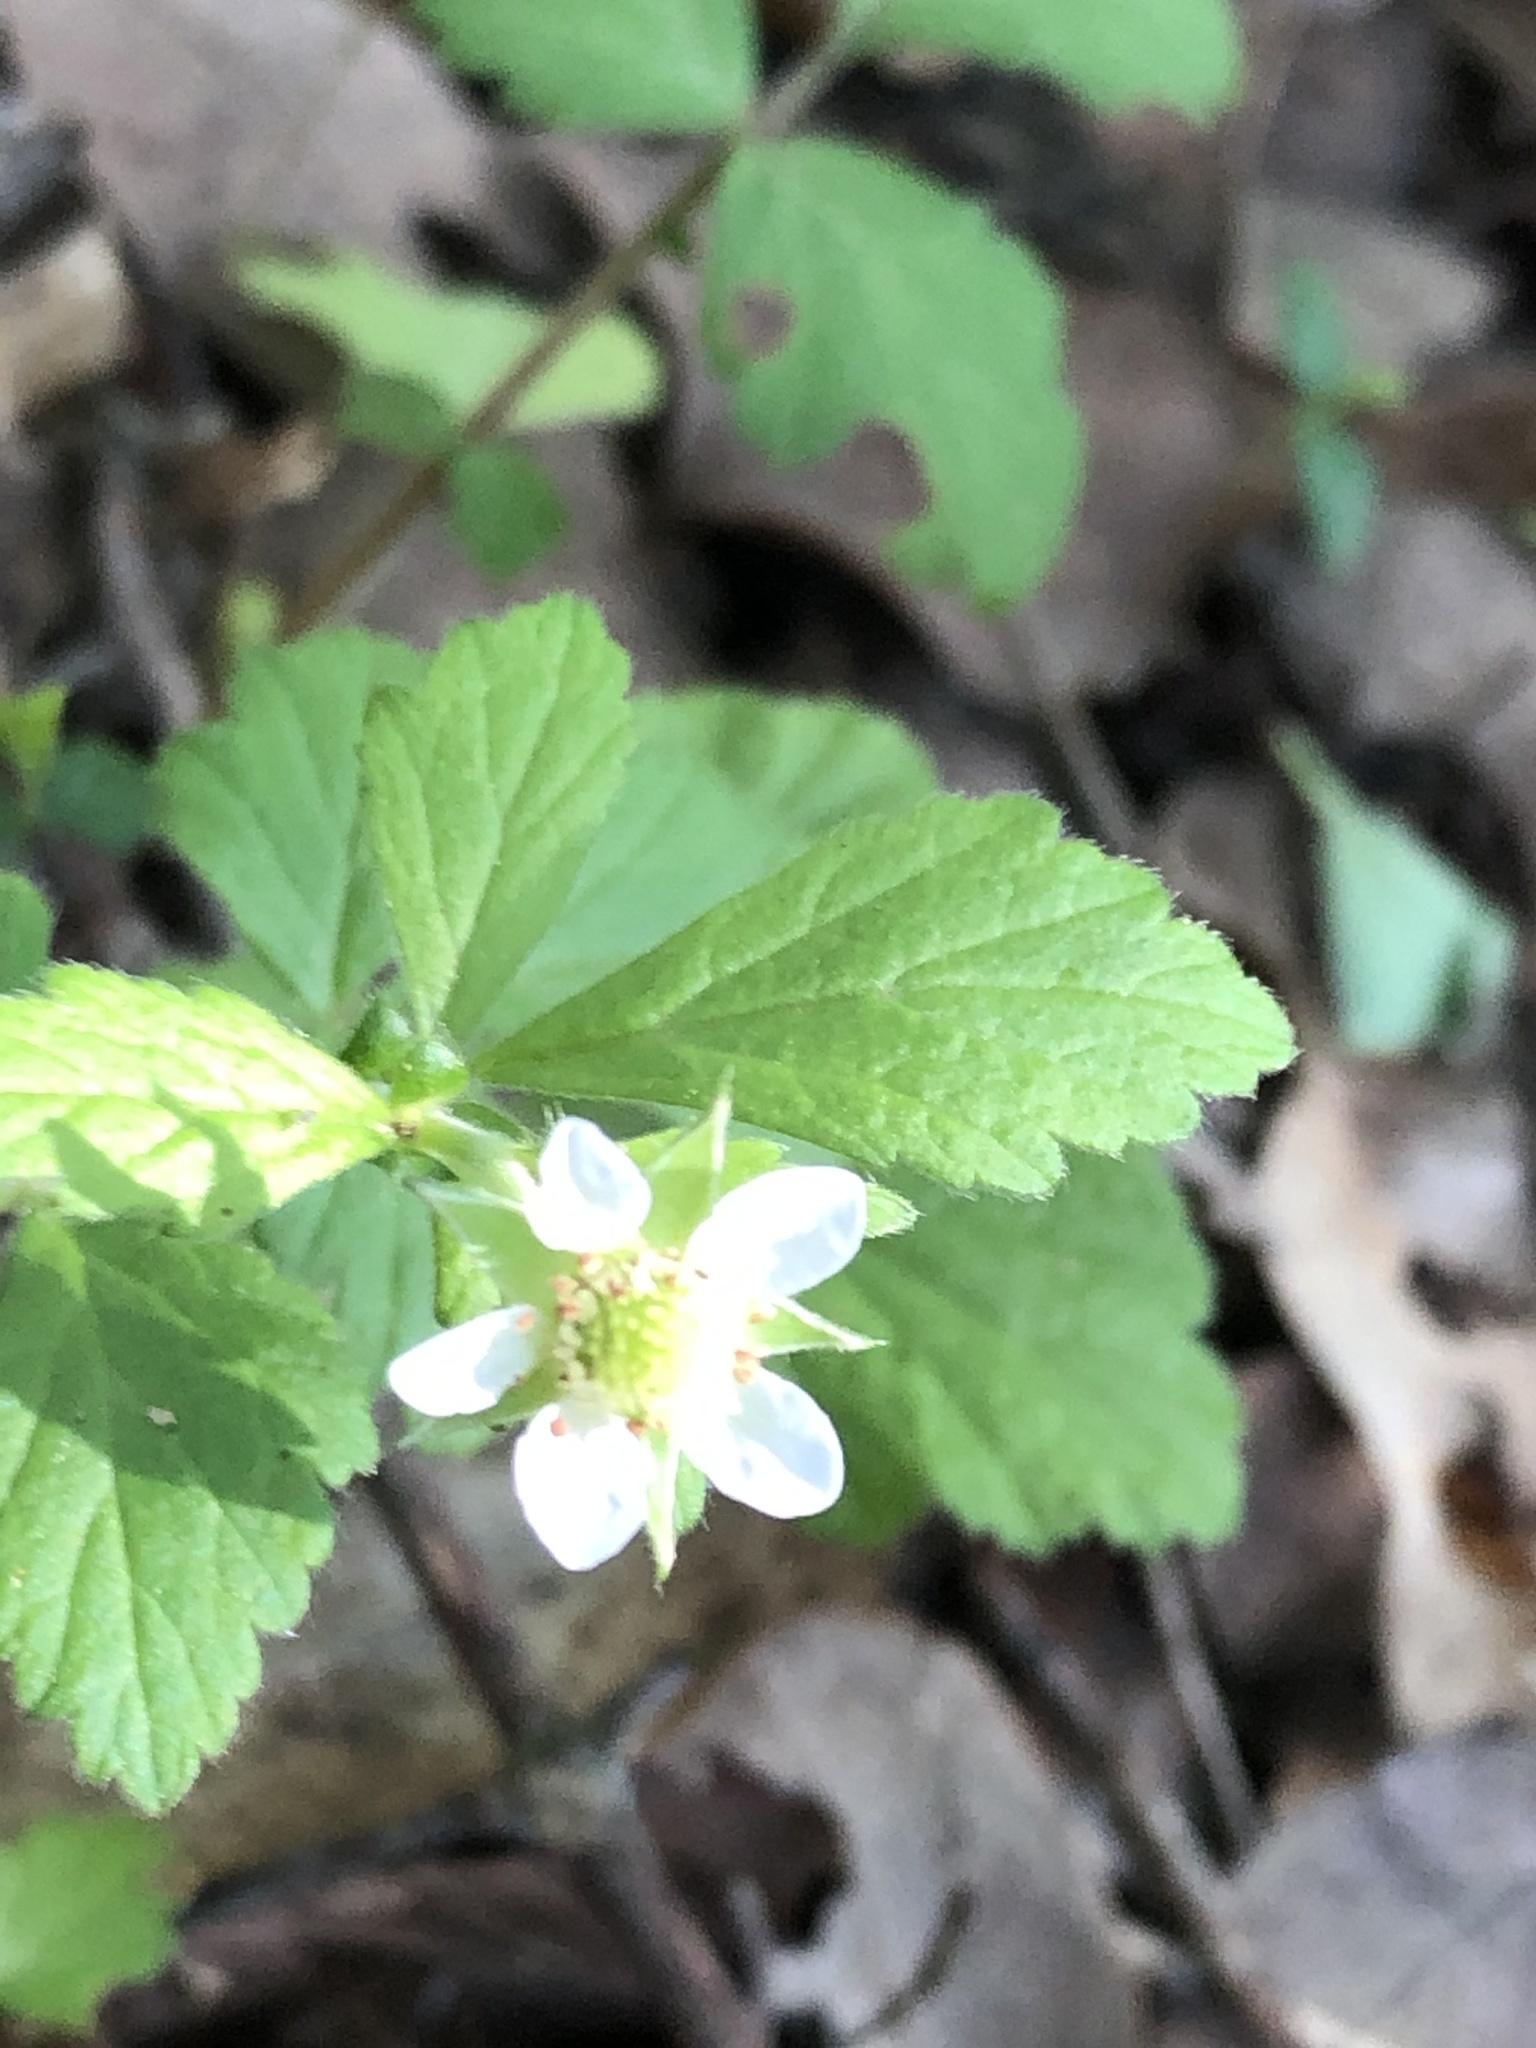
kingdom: Plantae
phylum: Tracheophyta
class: Magnoliopsida
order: Rosales
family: Rosaceae
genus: Geum
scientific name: Geum canadense
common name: White avens
